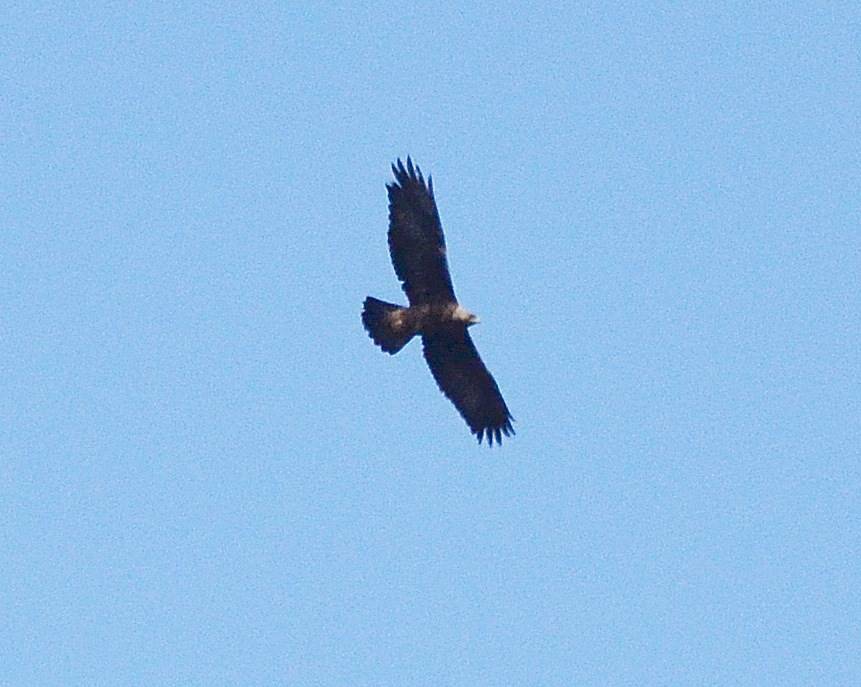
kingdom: Animalia
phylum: Chordata
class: Aves
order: Accipitriformes
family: Accipitridae
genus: Aquila
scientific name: Aquila chrysaetos
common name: Golden eagle
